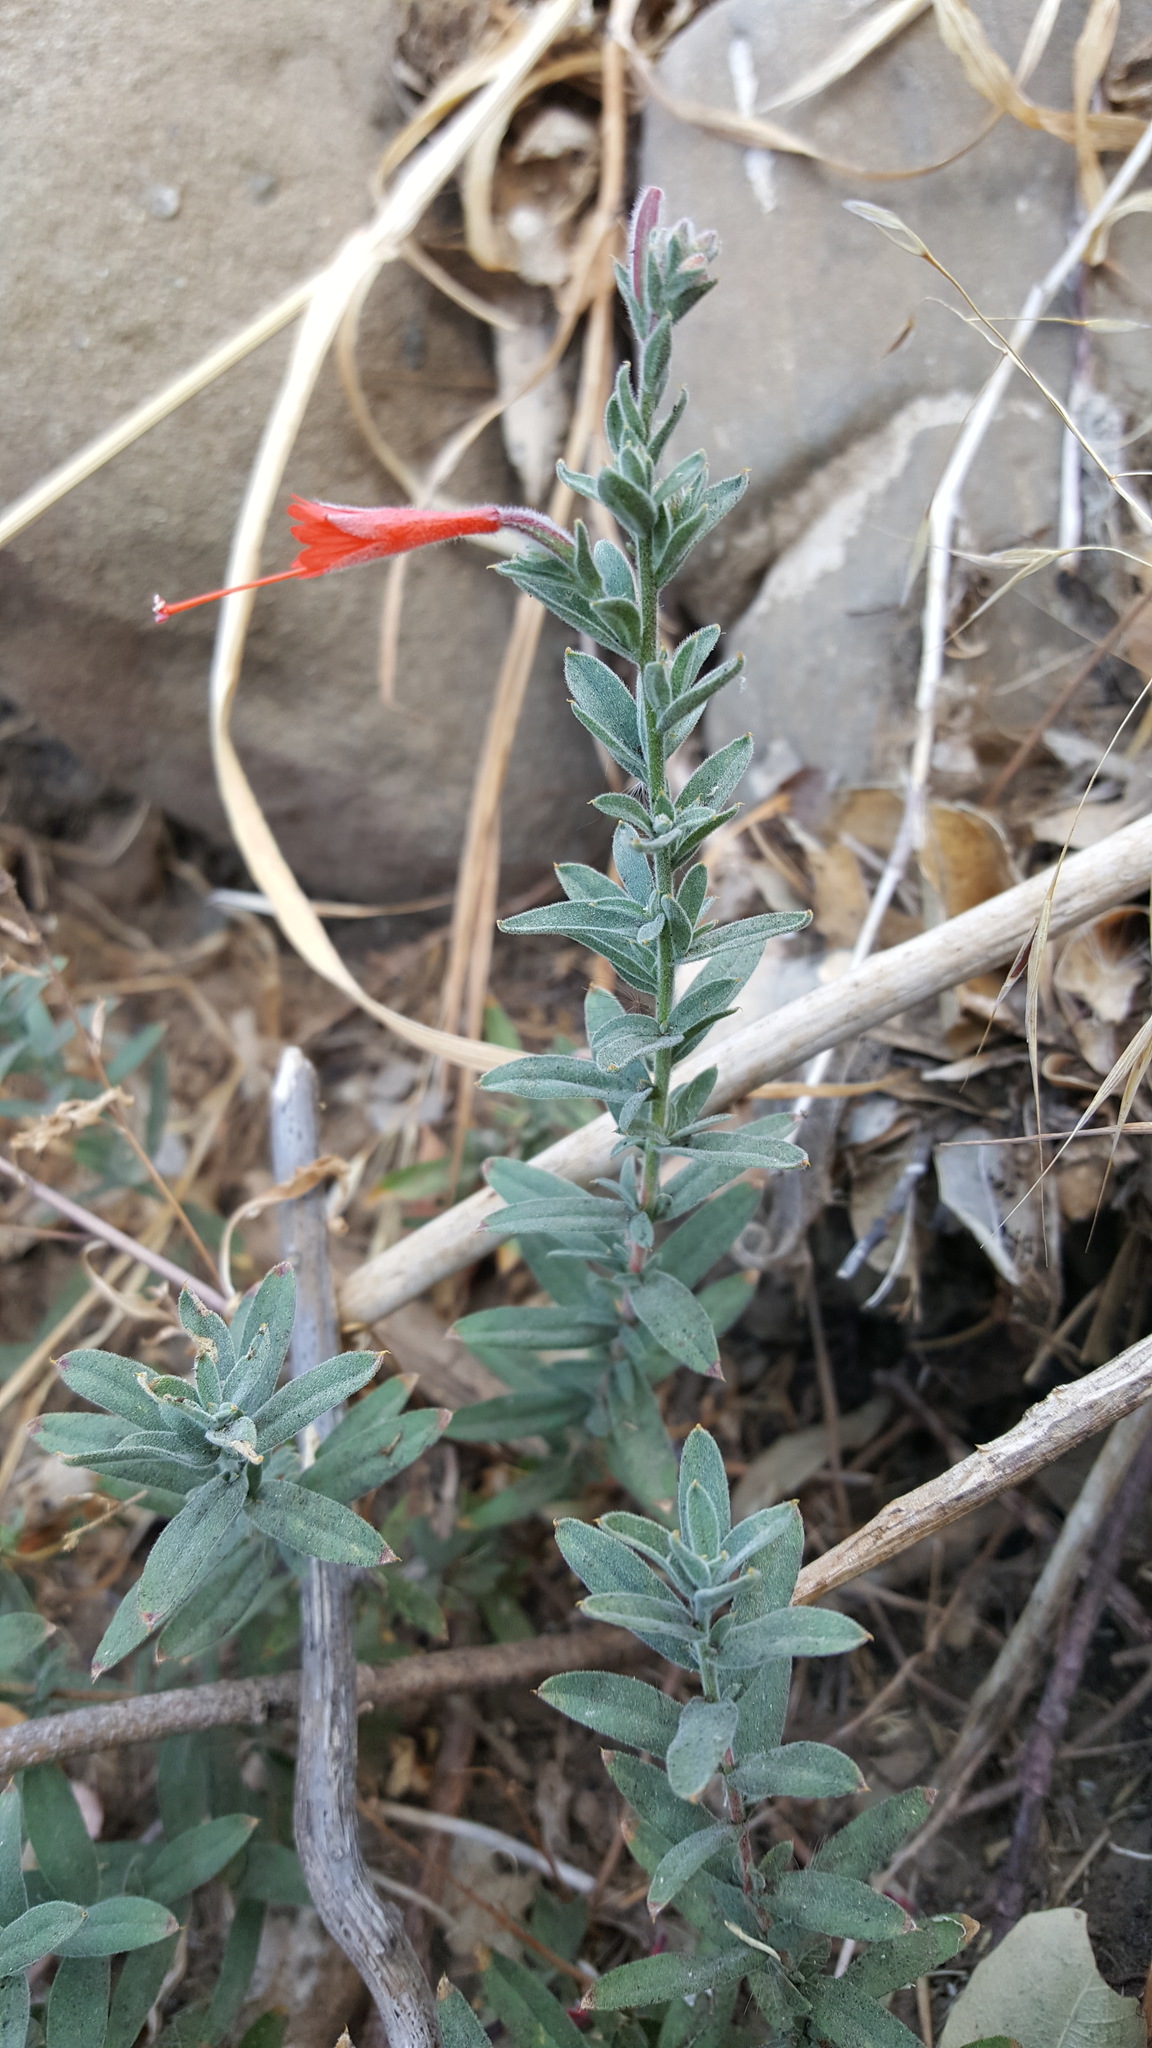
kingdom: Plantae
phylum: Tracheophyta
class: Magnoliopsida
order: Myrtales
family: Onagraceae
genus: Epilobium
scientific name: Epilobium canum
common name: California-fuchsia
